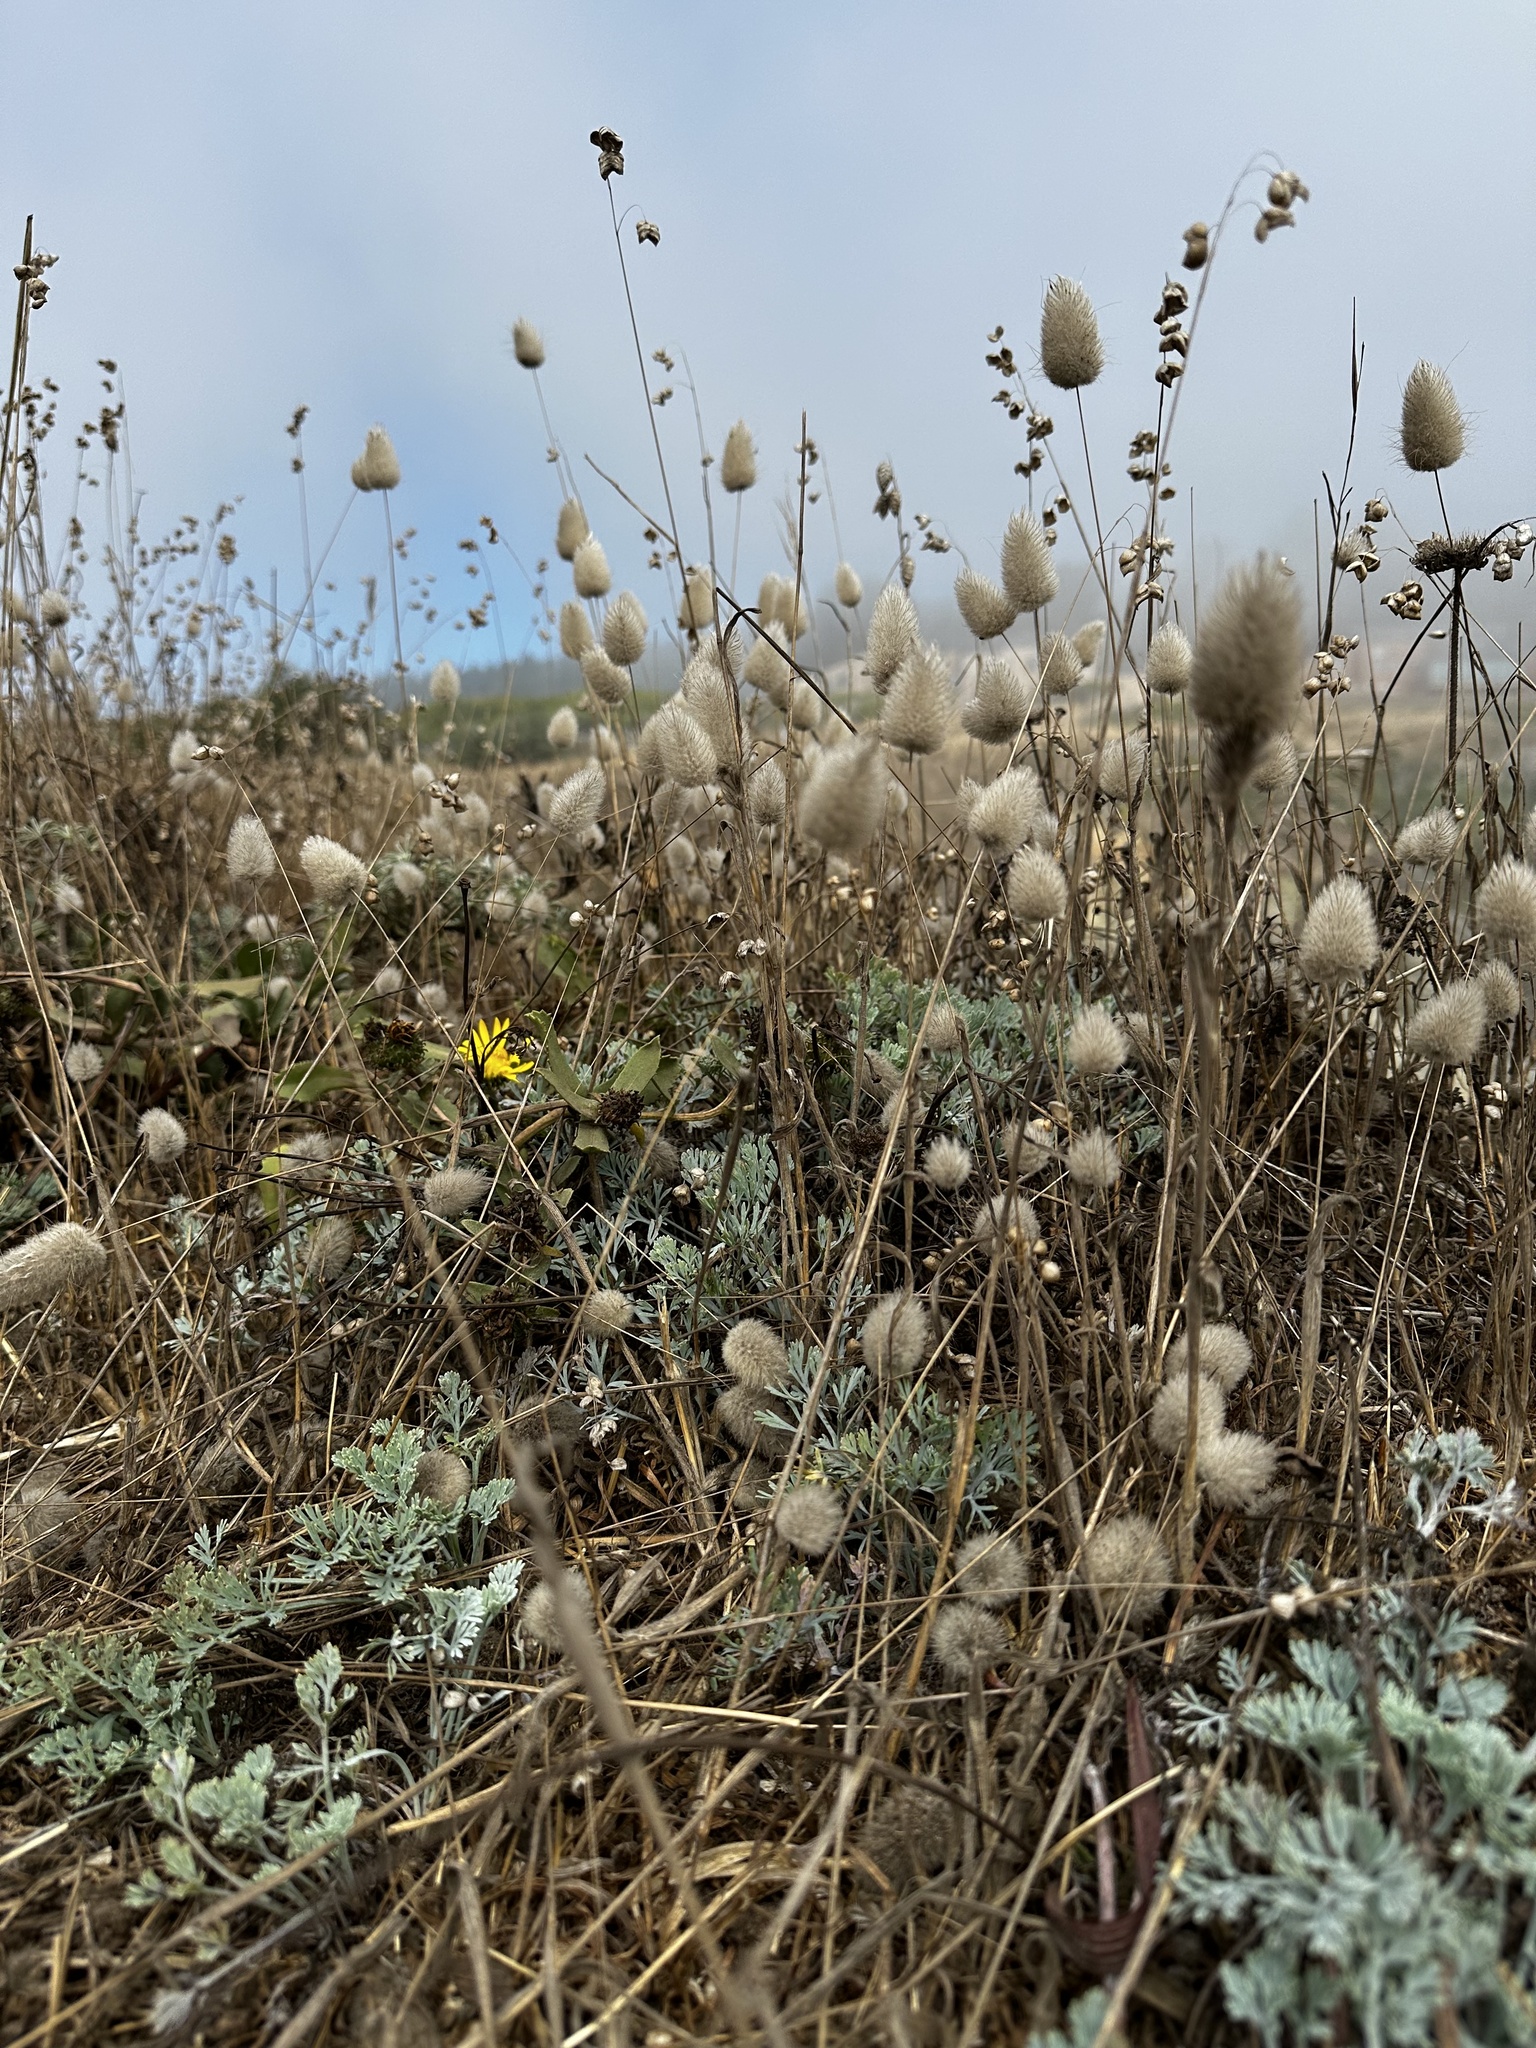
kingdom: Plantae
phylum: Tracheophyta
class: Liliopsida
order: Poales
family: Poaceae
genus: Lagurus
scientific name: Lagurus ovatus
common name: Hare's-tail
